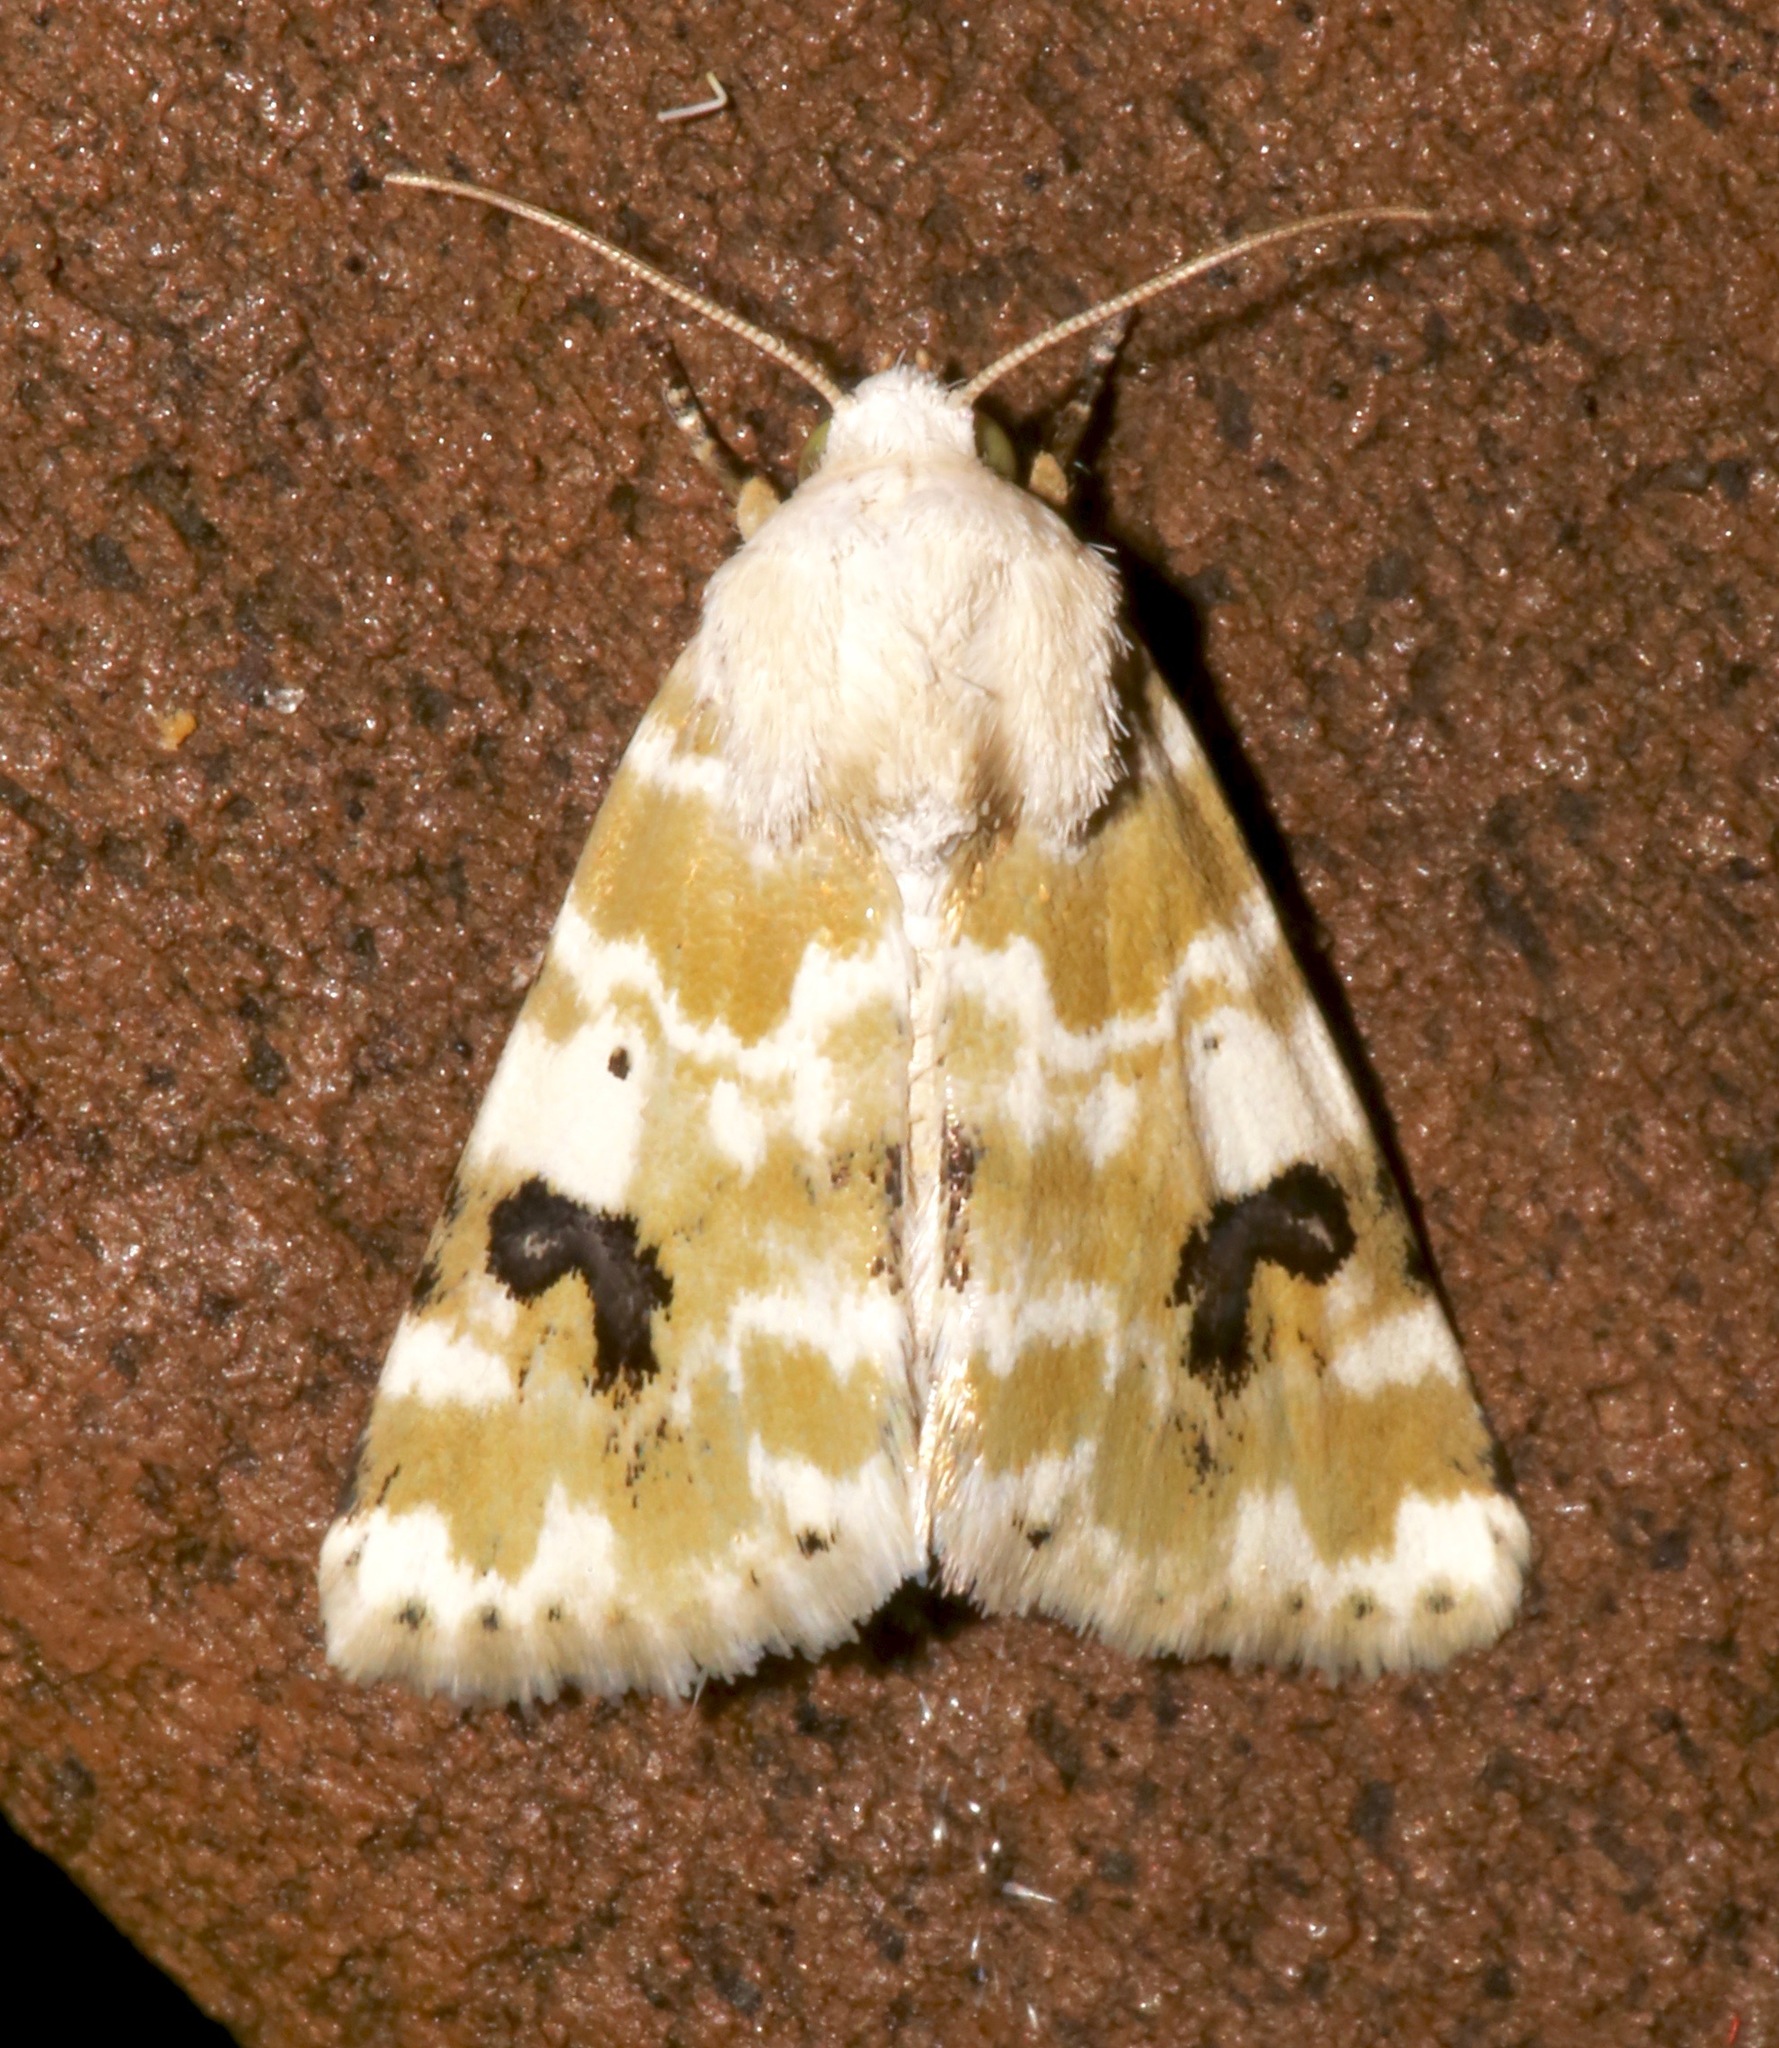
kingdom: Animalia
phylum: Arthropoda
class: Insecta
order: Lepidoptera
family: Noctuidae
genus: Schinia
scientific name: Schinia nundina
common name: Goldenrod flower moth
